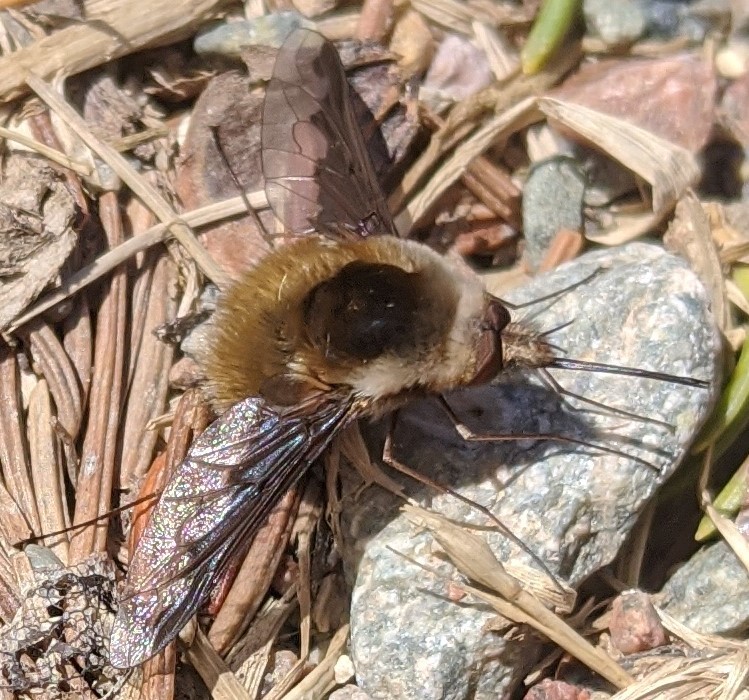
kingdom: Animalia
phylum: Arthropoda
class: Insecta
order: Diptera
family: Bombyliidae
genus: Bombylius
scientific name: Bombylius major
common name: Bee fly
